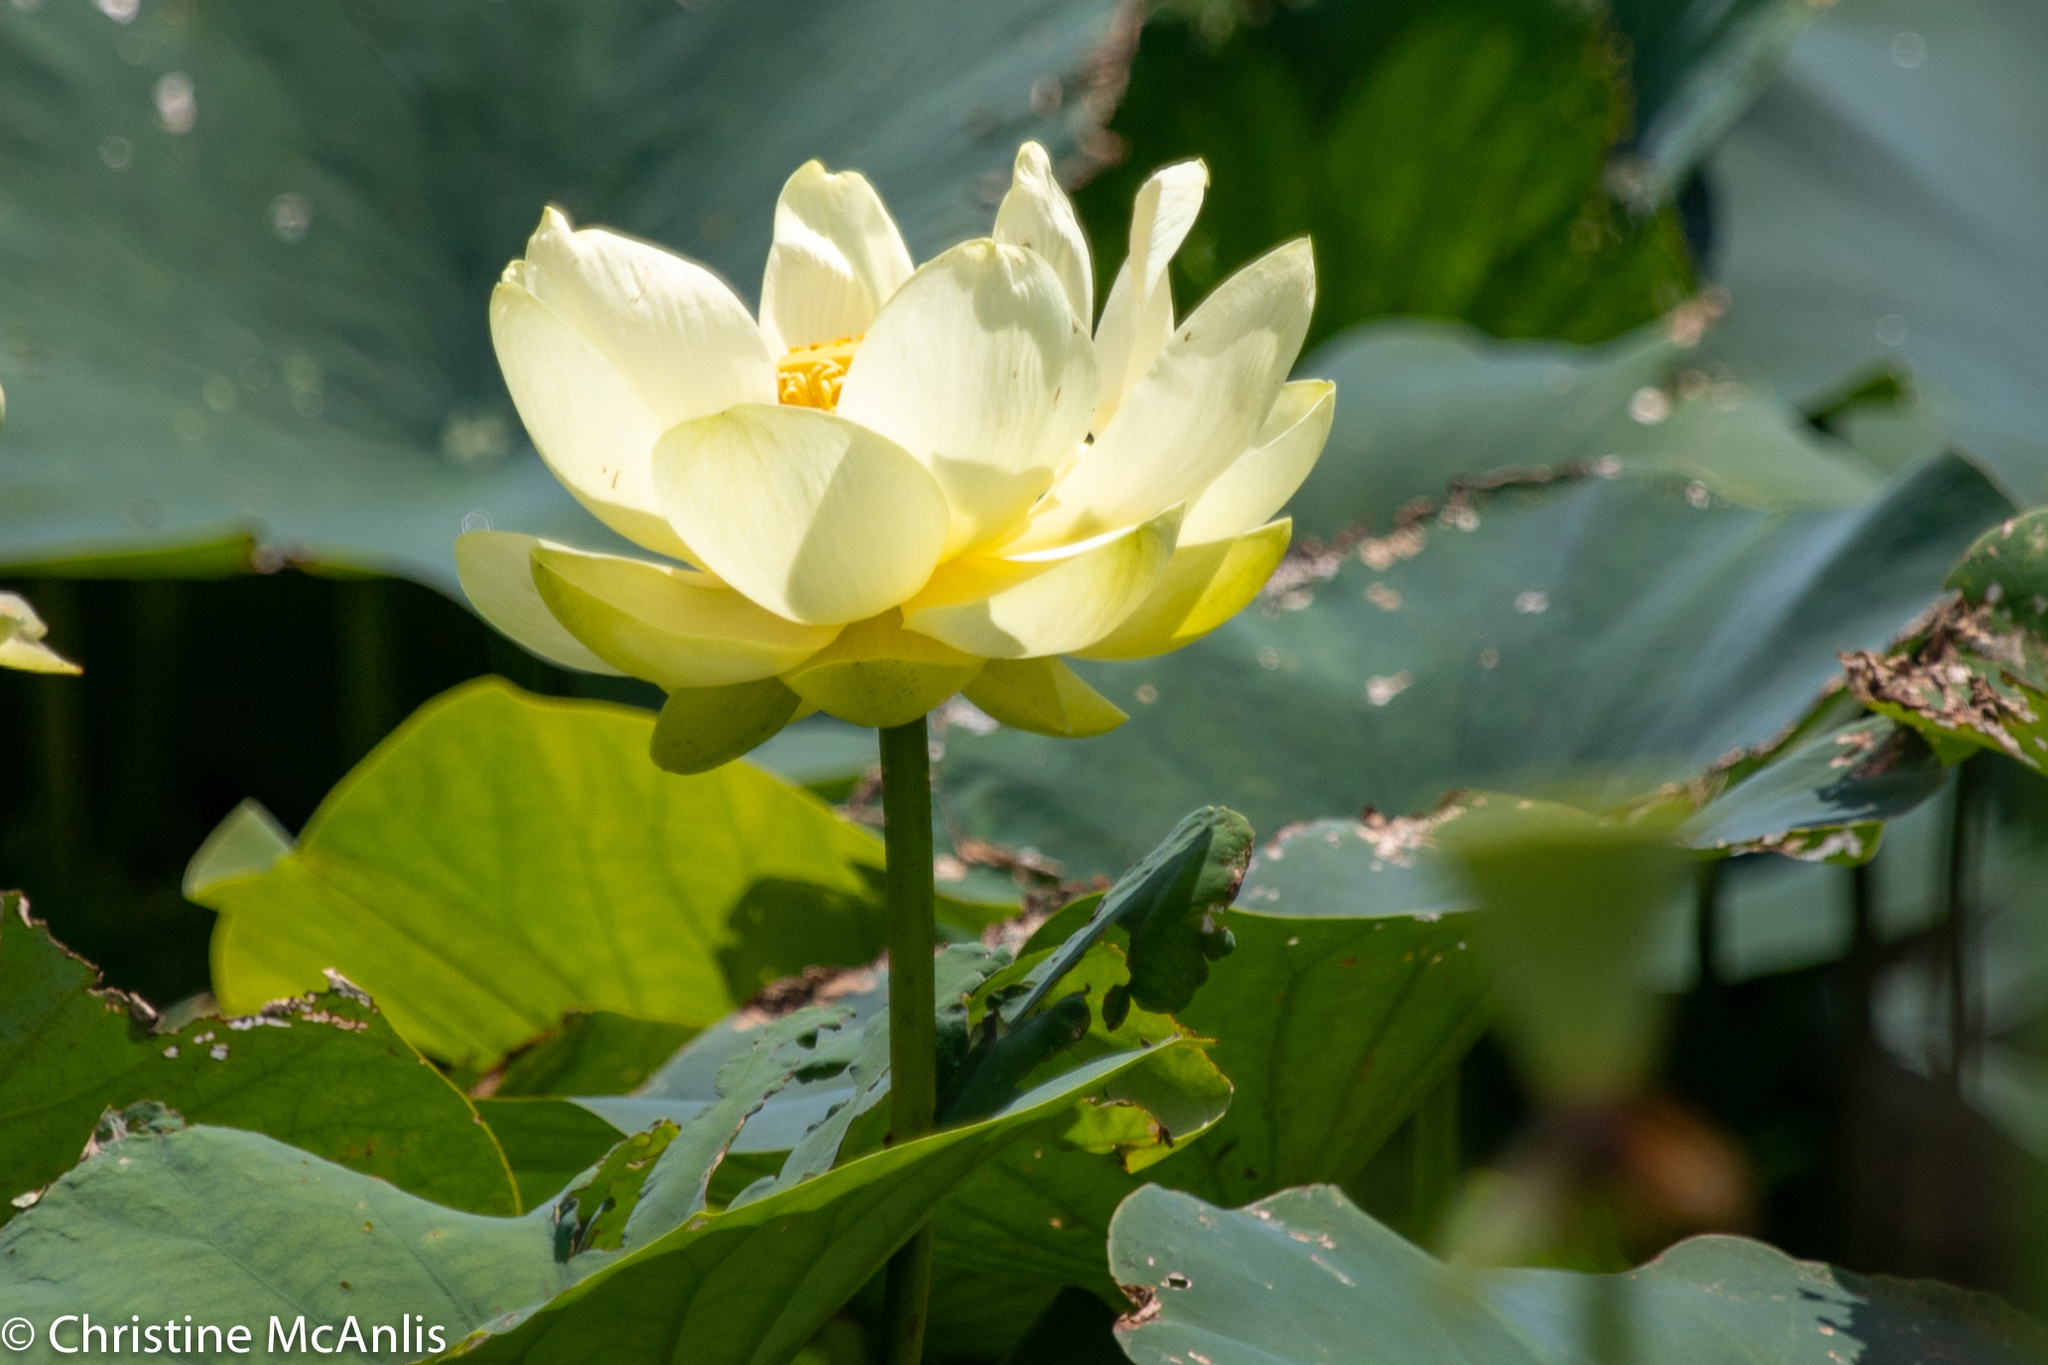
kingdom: Plantae
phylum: Tracheophyta
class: Magnoliopsida
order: Proteales
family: Nelumbonaceae
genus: Nelumbo
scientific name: Nelumbo lutea
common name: American lotus
